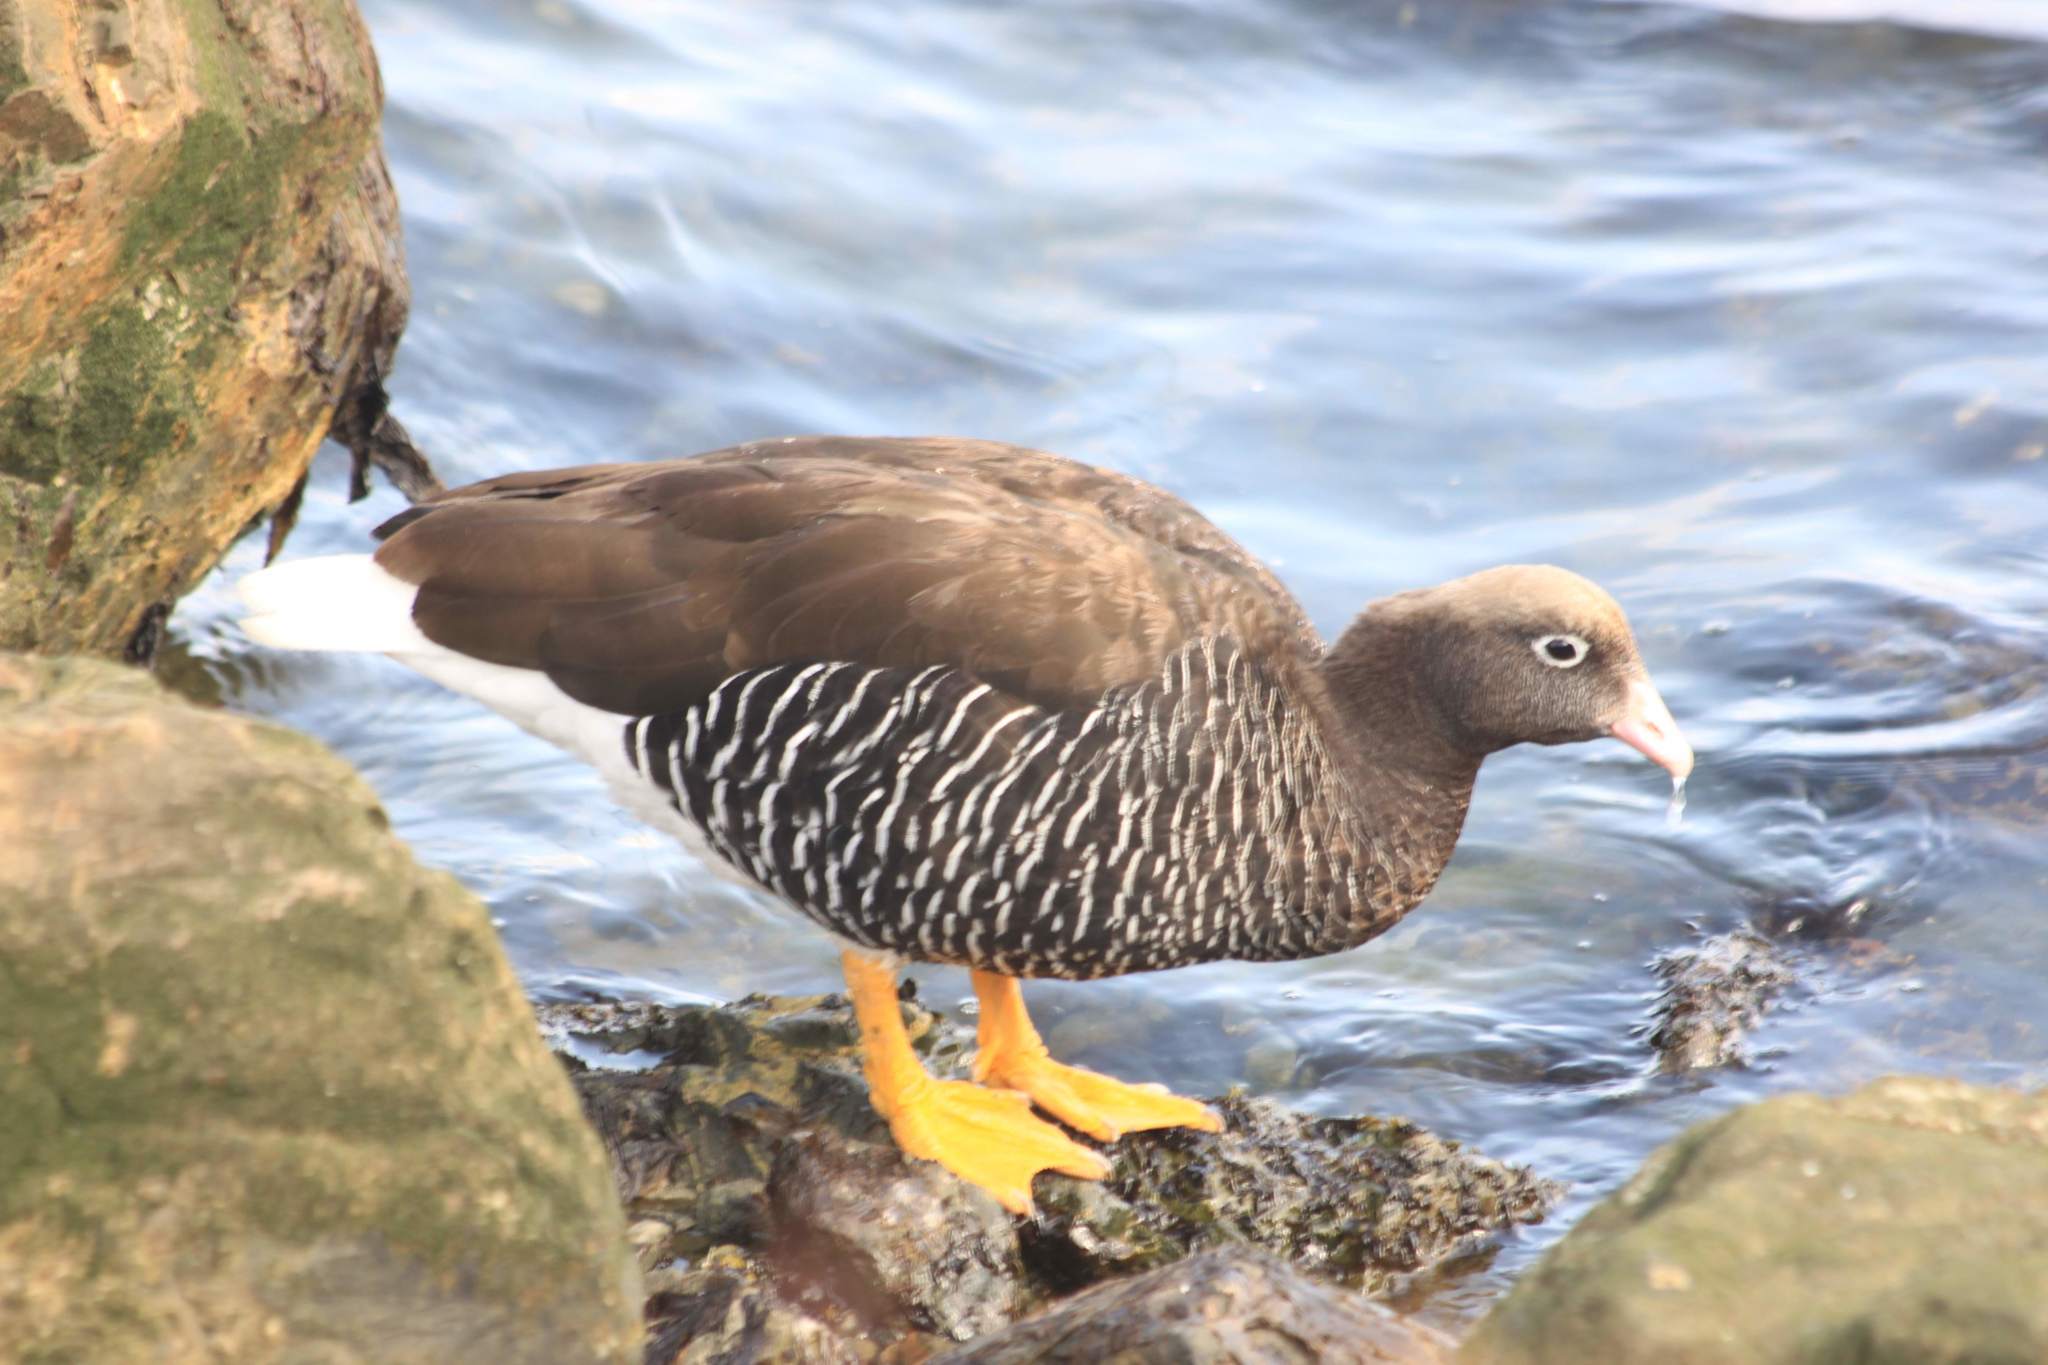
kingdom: Animalia
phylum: Chordata
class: Aves
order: Anseriformes
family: Anatidae
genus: Chloephaga
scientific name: Chloephaga hybrida
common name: Kelp goose
